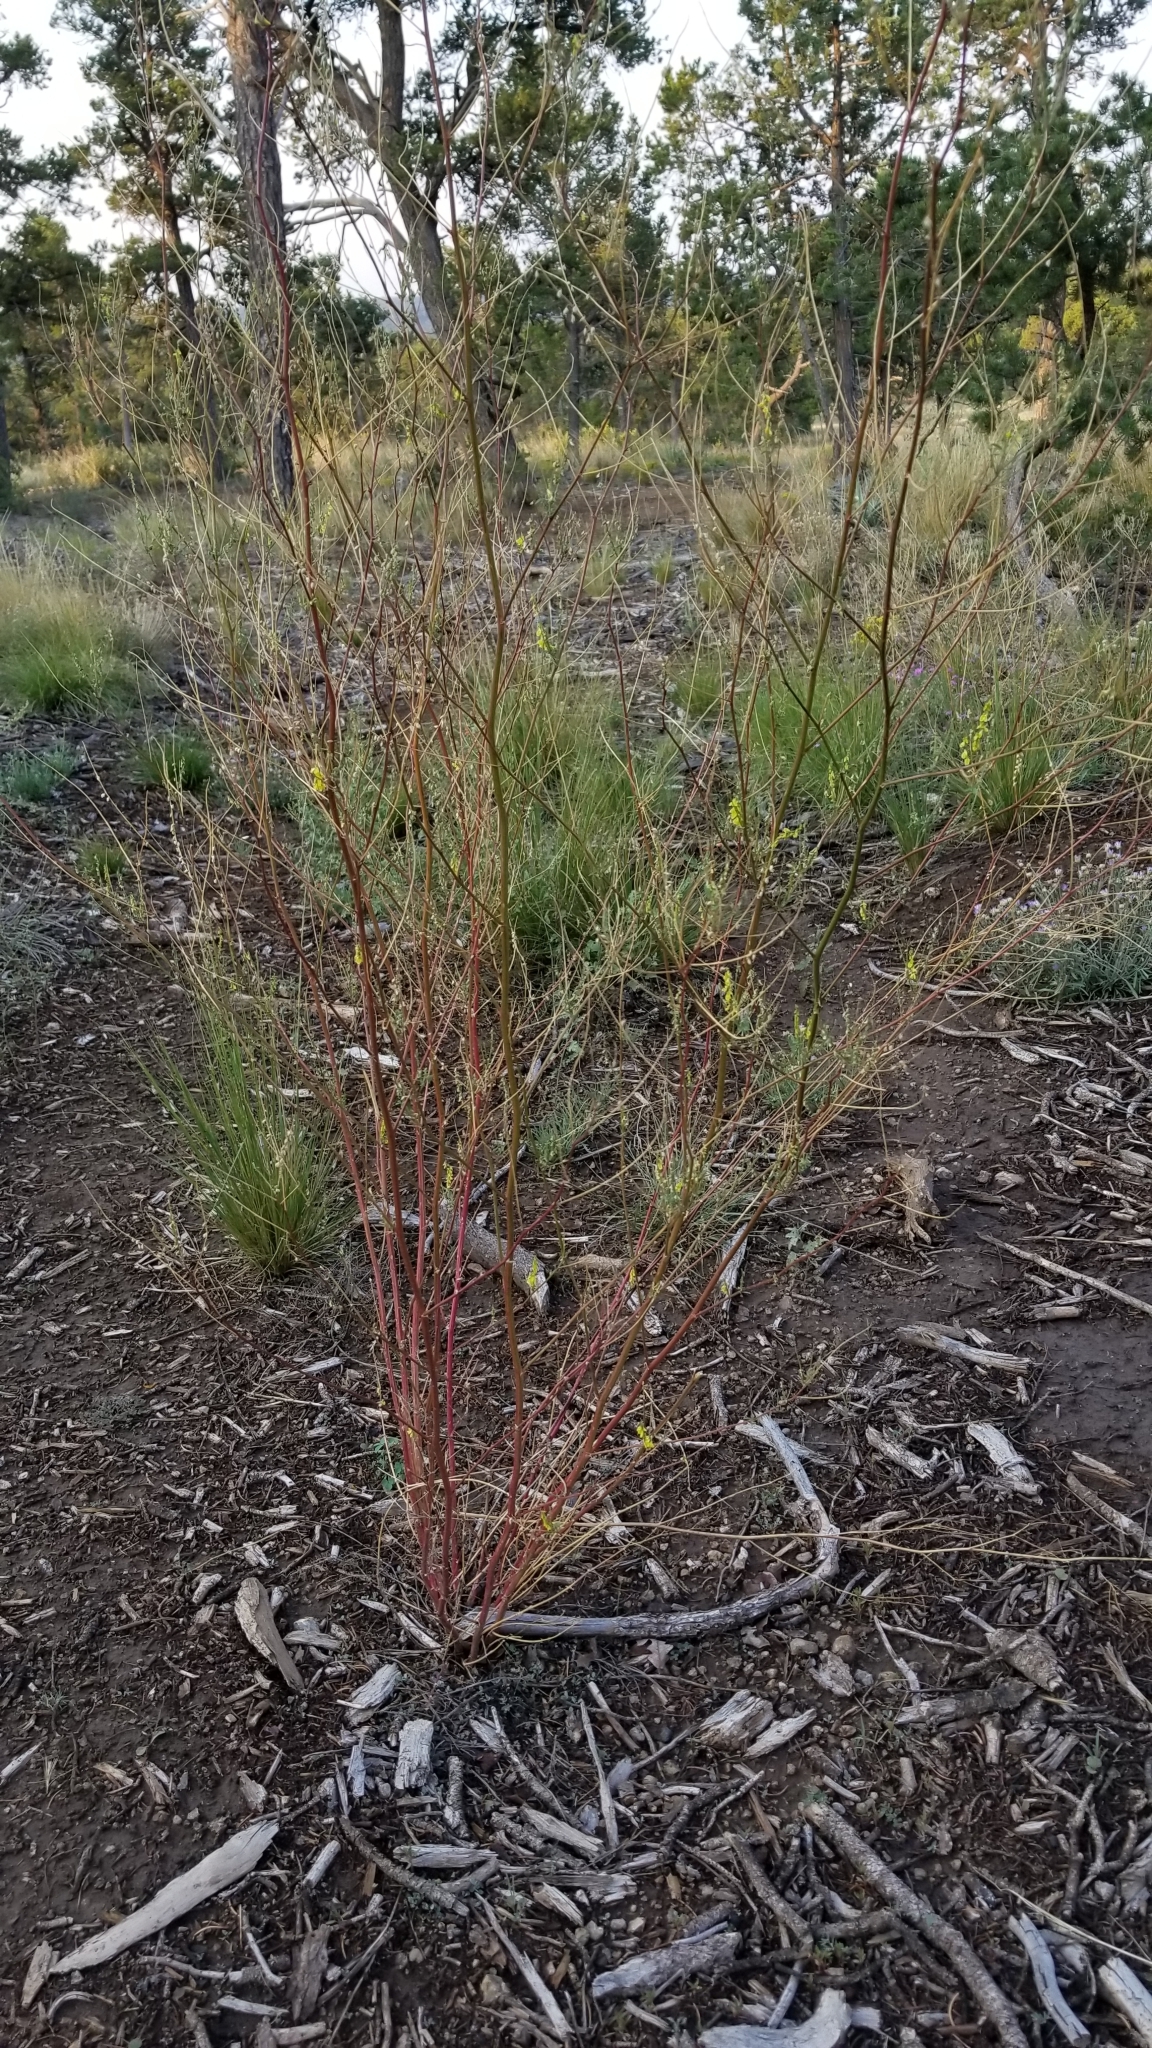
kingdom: Plantae
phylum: Tracheophyta
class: Magnoliopsida
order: Fabales
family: Fabaceae
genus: Melilotus
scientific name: Melilotus officinalis
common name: Sweetclover
